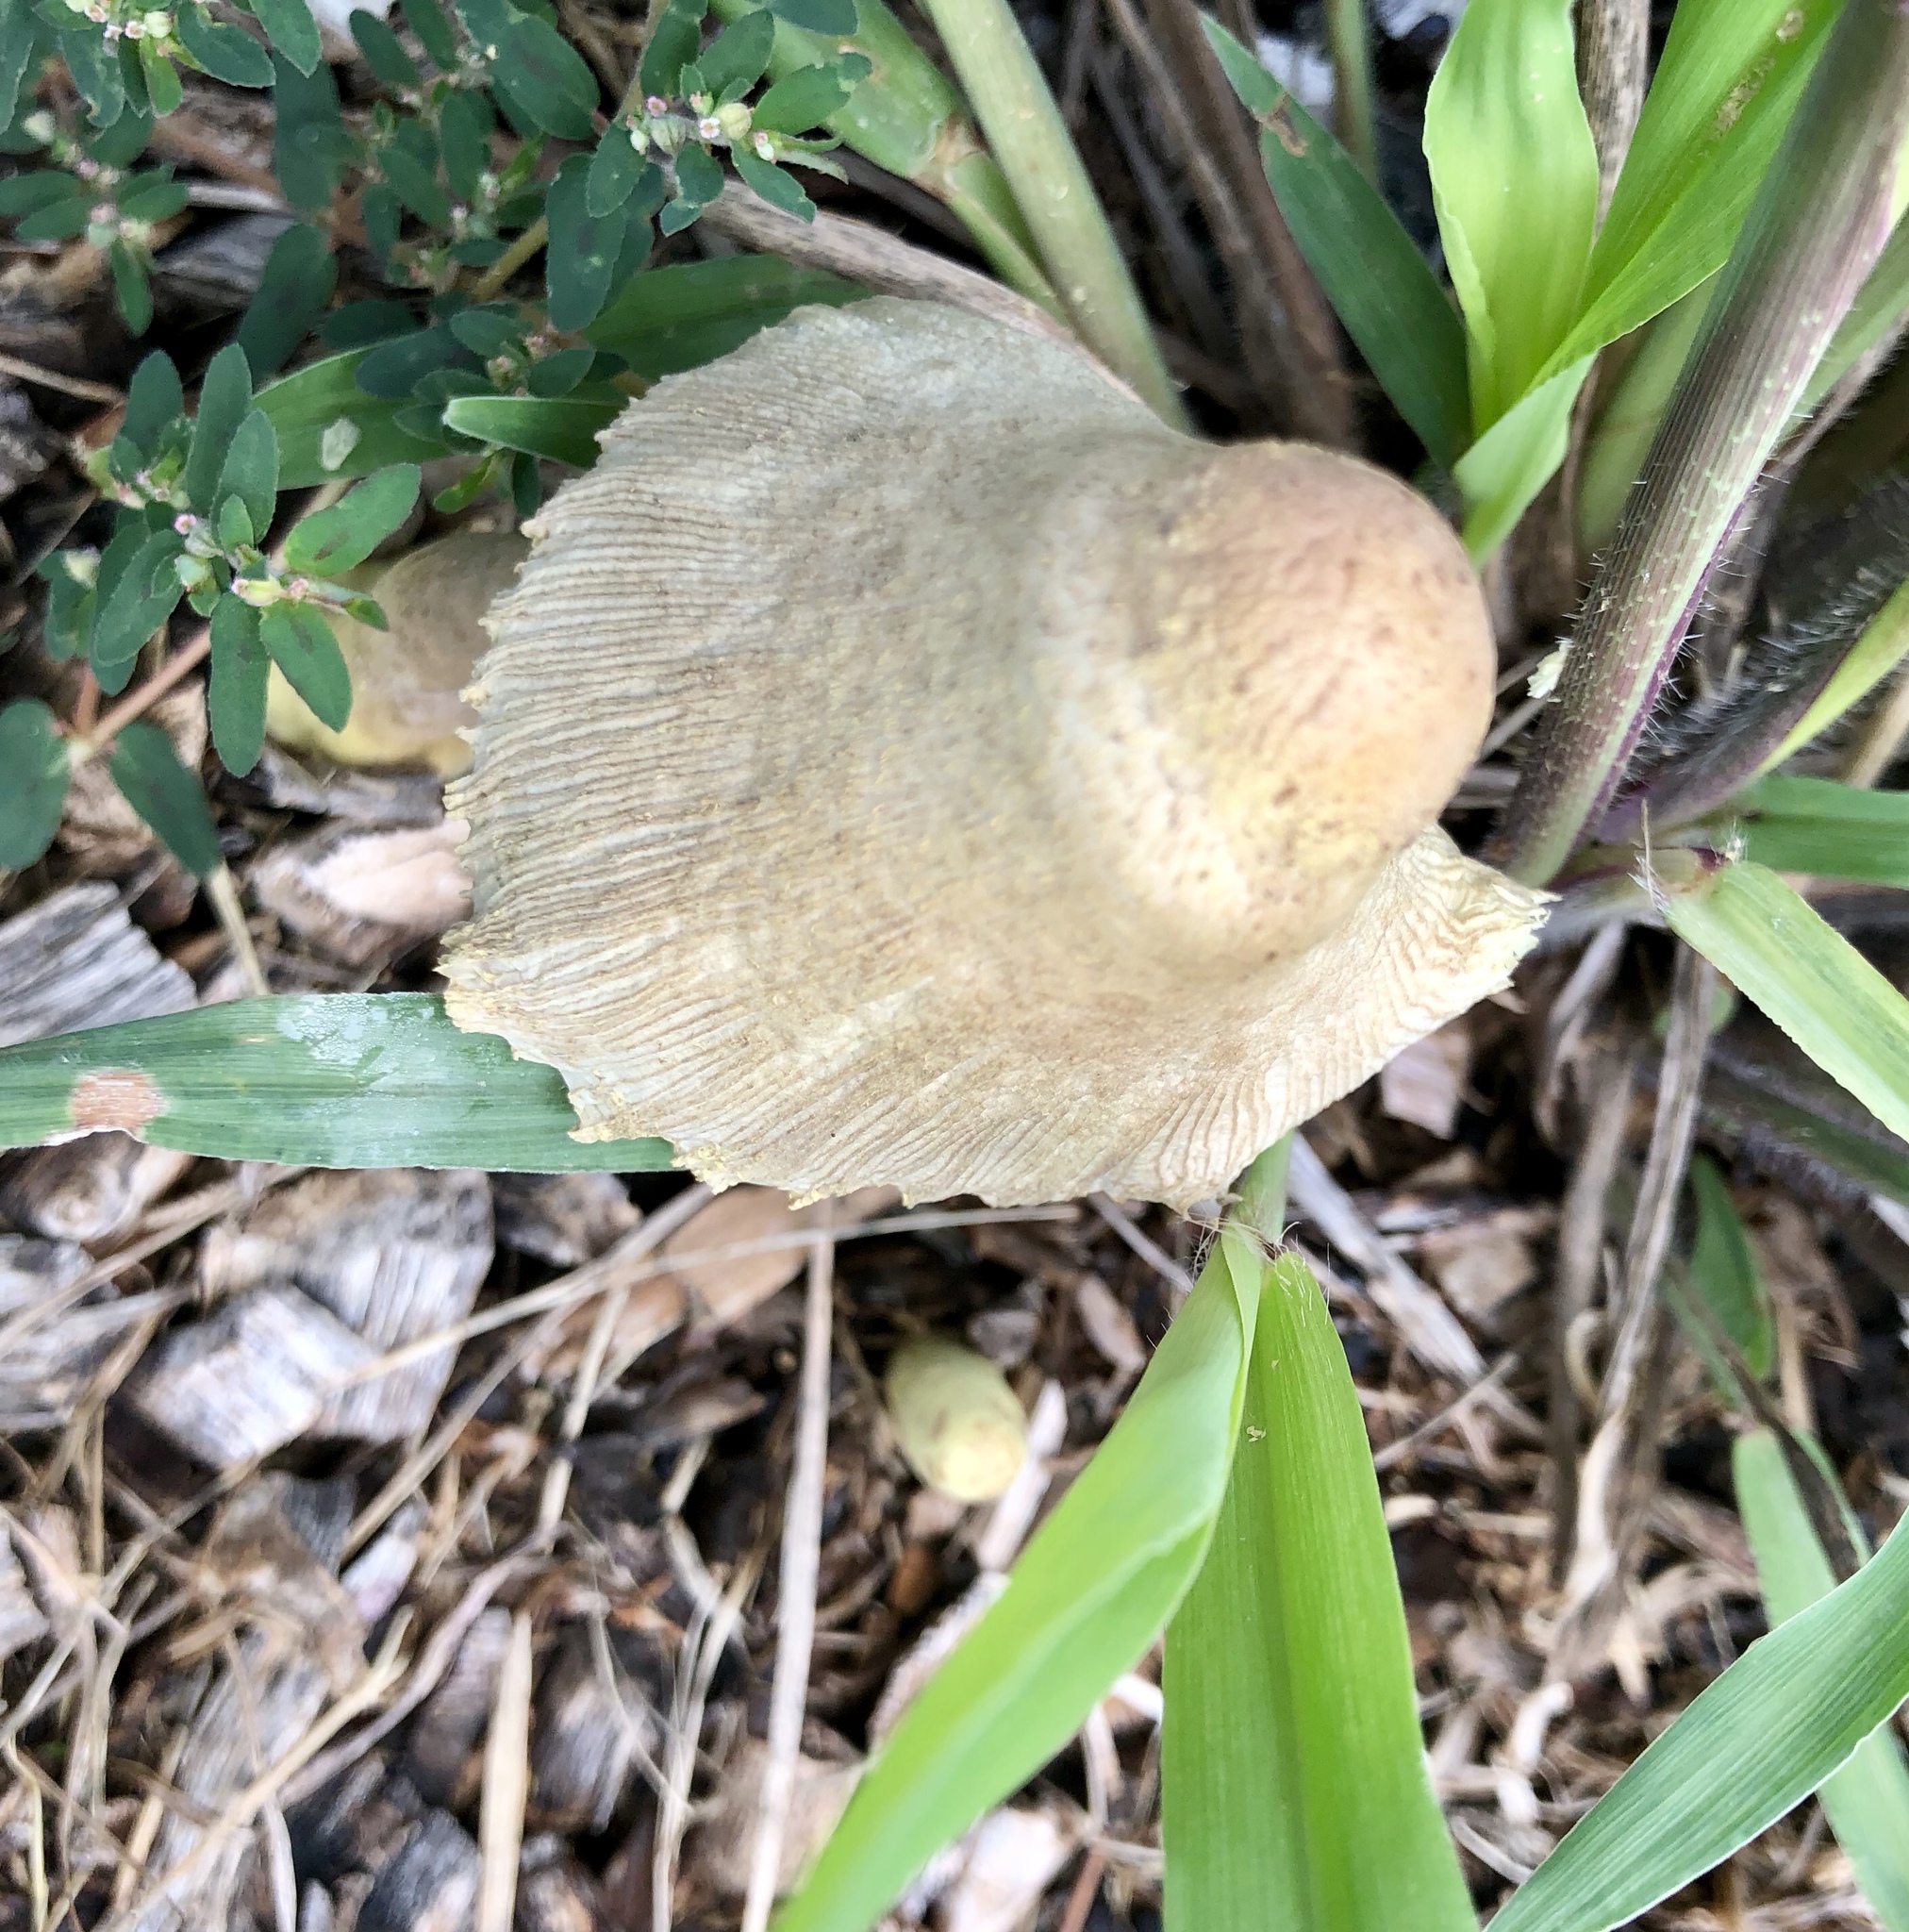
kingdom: Fungi
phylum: Basidiomycota
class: Agaricomycetes
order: Agaricales
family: Agaricaceae
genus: Leucocoprinus
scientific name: Leucocoprinus birnbaumii
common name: Plantpot dapperling
